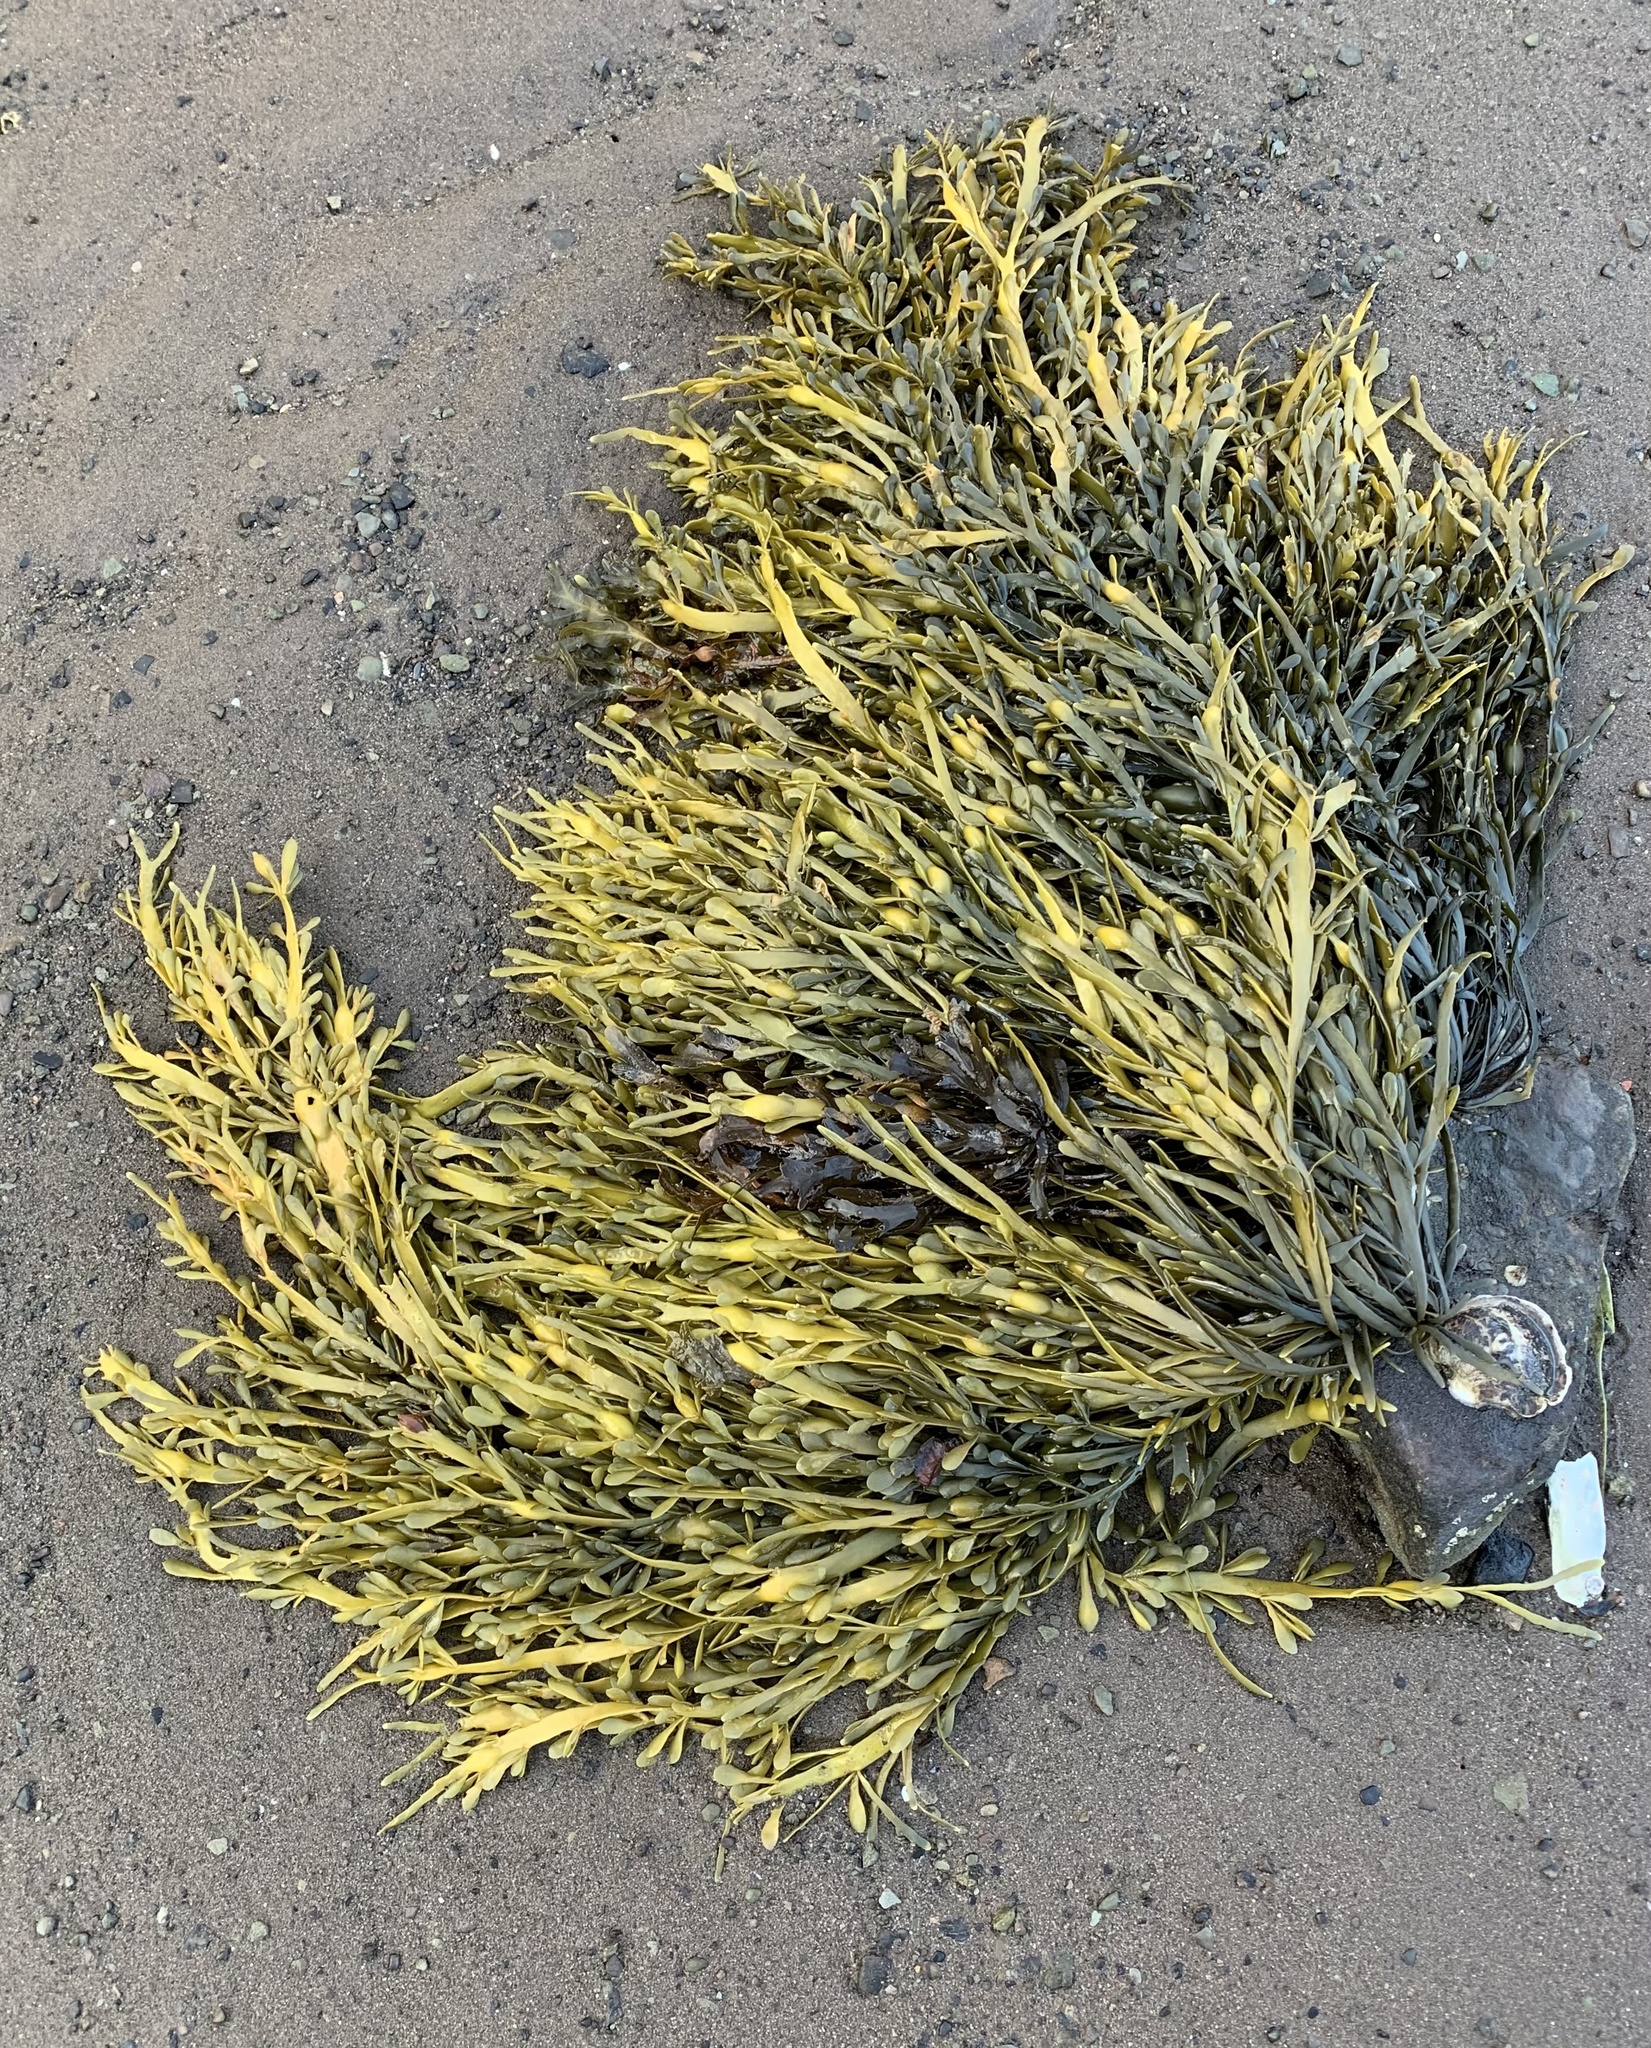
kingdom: Chromista
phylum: Ochrophyta
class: Phaeophyceae
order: Fucales
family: Fucaceae
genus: Ascophyllum
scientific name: Ascophyllum nodosum
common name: Knotted wrack
